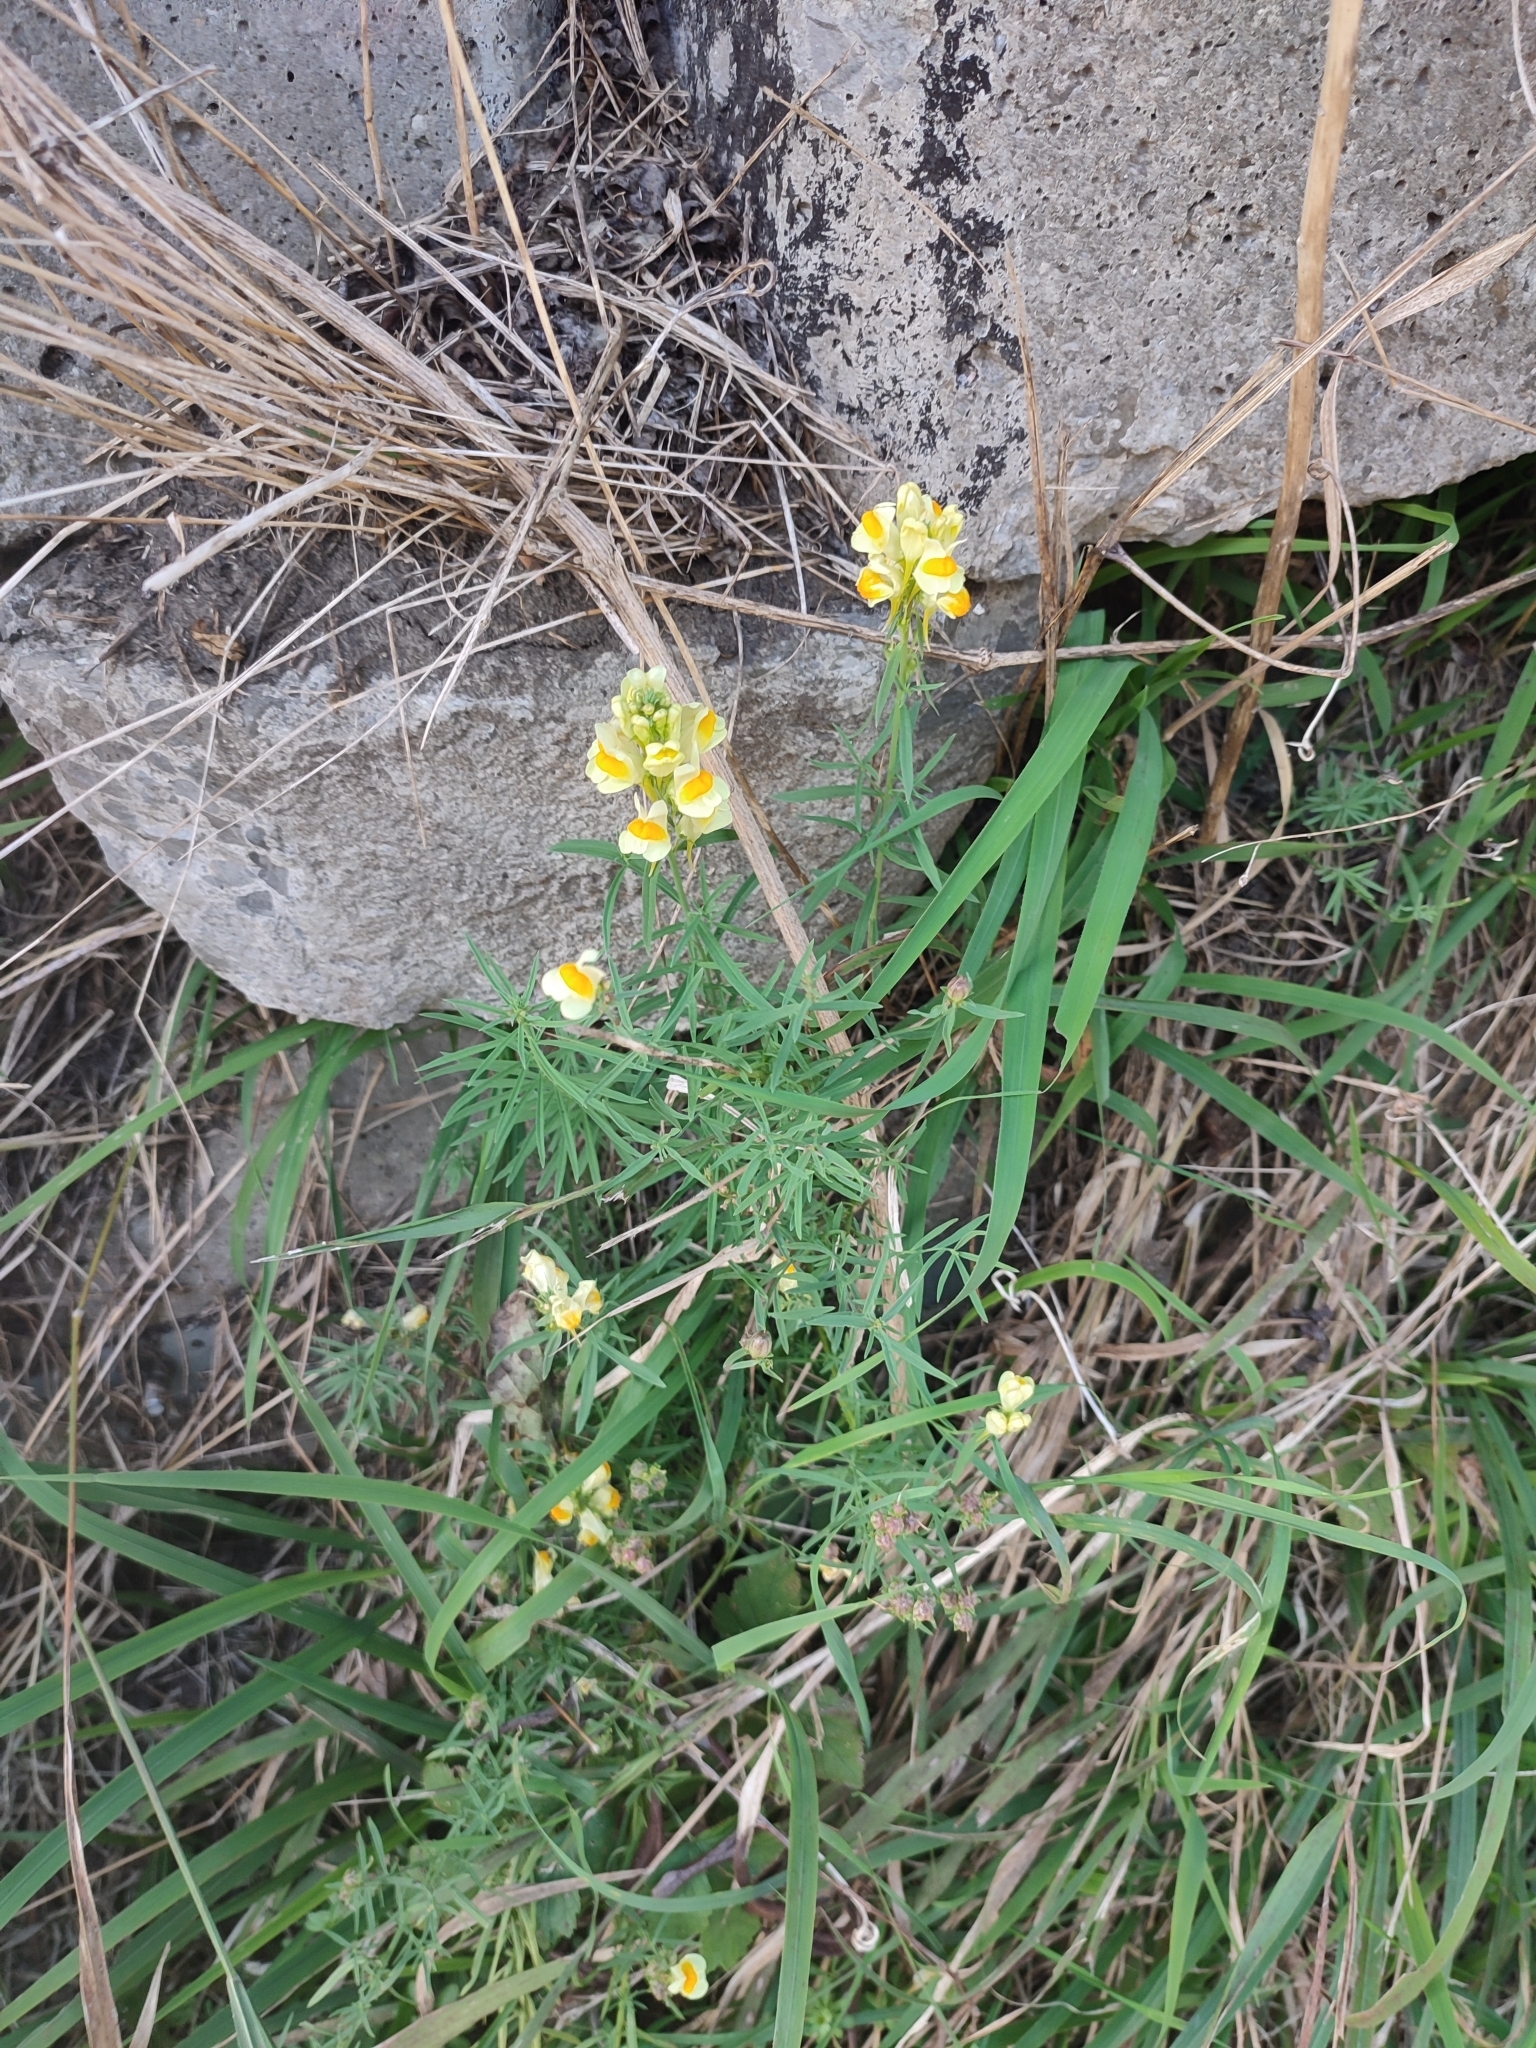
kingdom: Plantae
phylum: Tracheophyta
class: Magnoliopsida
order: Lamiales
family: Plantaginaceae
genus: Linaria
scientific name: Linaria vulgaris
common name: Butter and eggs
